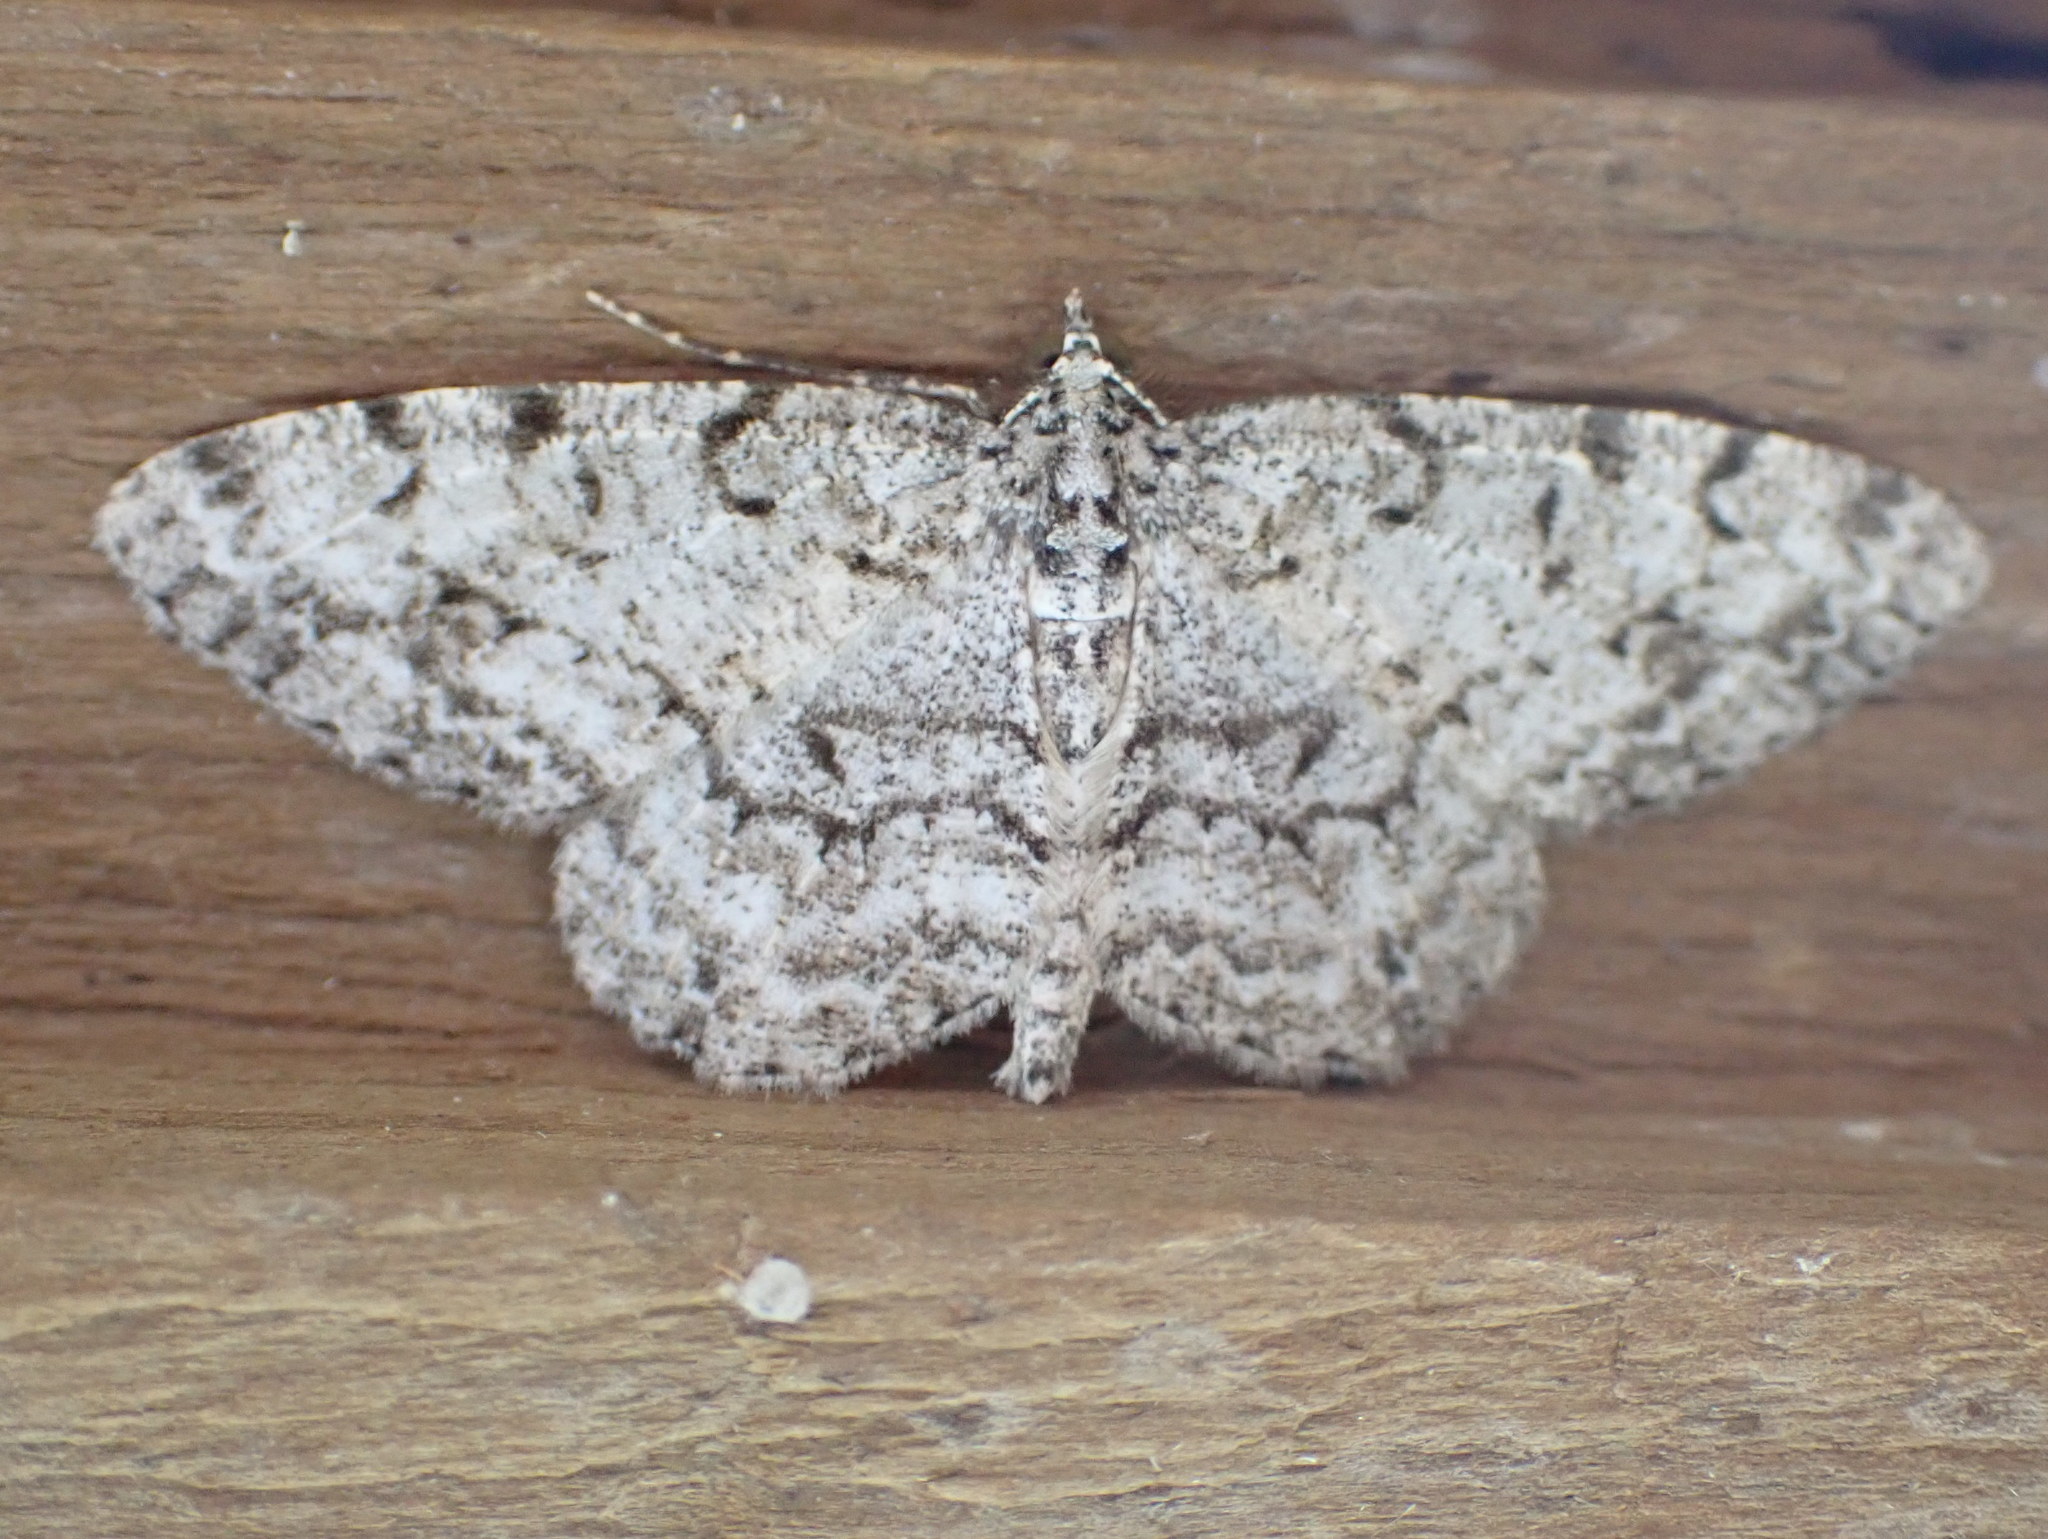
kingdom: Animalia
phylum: Arthropoda
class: Insecta
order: Lepidoptera
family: Geometridae
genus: Protoboarmia
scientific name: Protoboarmia porcelaria
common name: Porcelain gray
